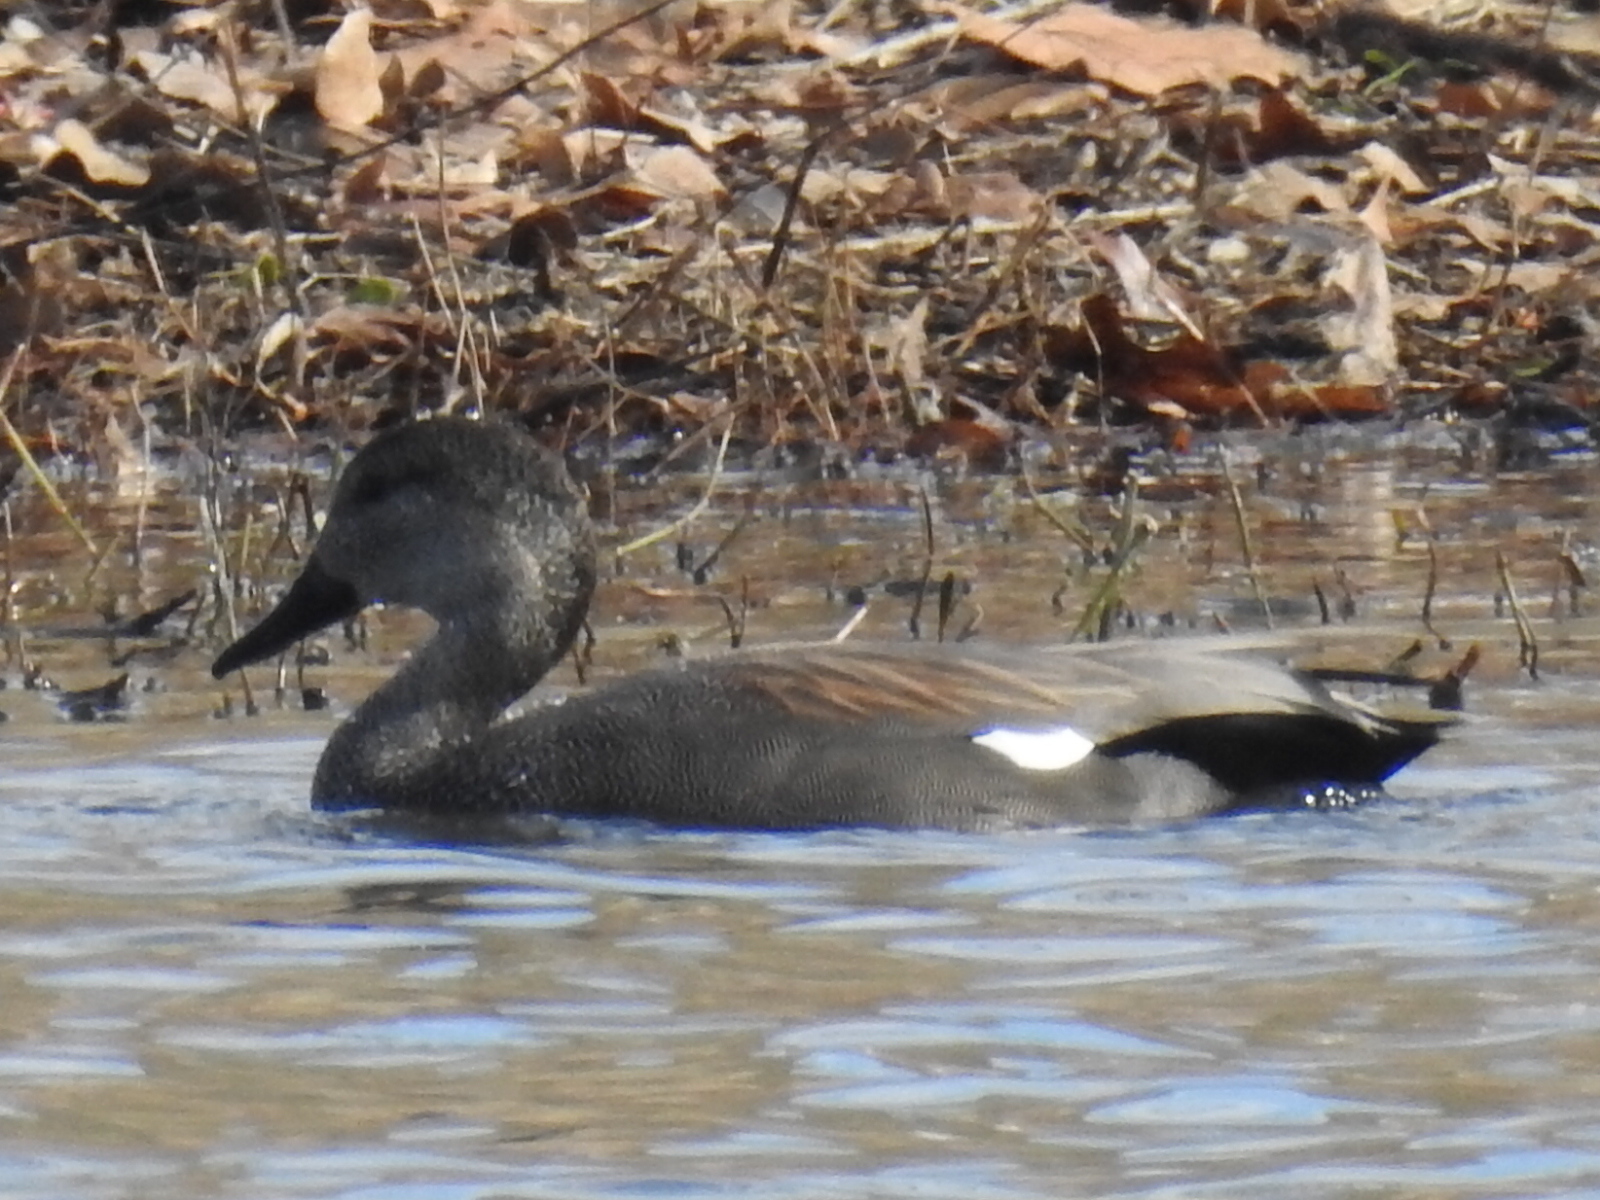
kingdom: Animalia
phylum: Chordata
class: Aves
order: Anseriformes
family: Anatidae
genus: Mareca
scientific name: Mareca strepera
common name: Gadwall
